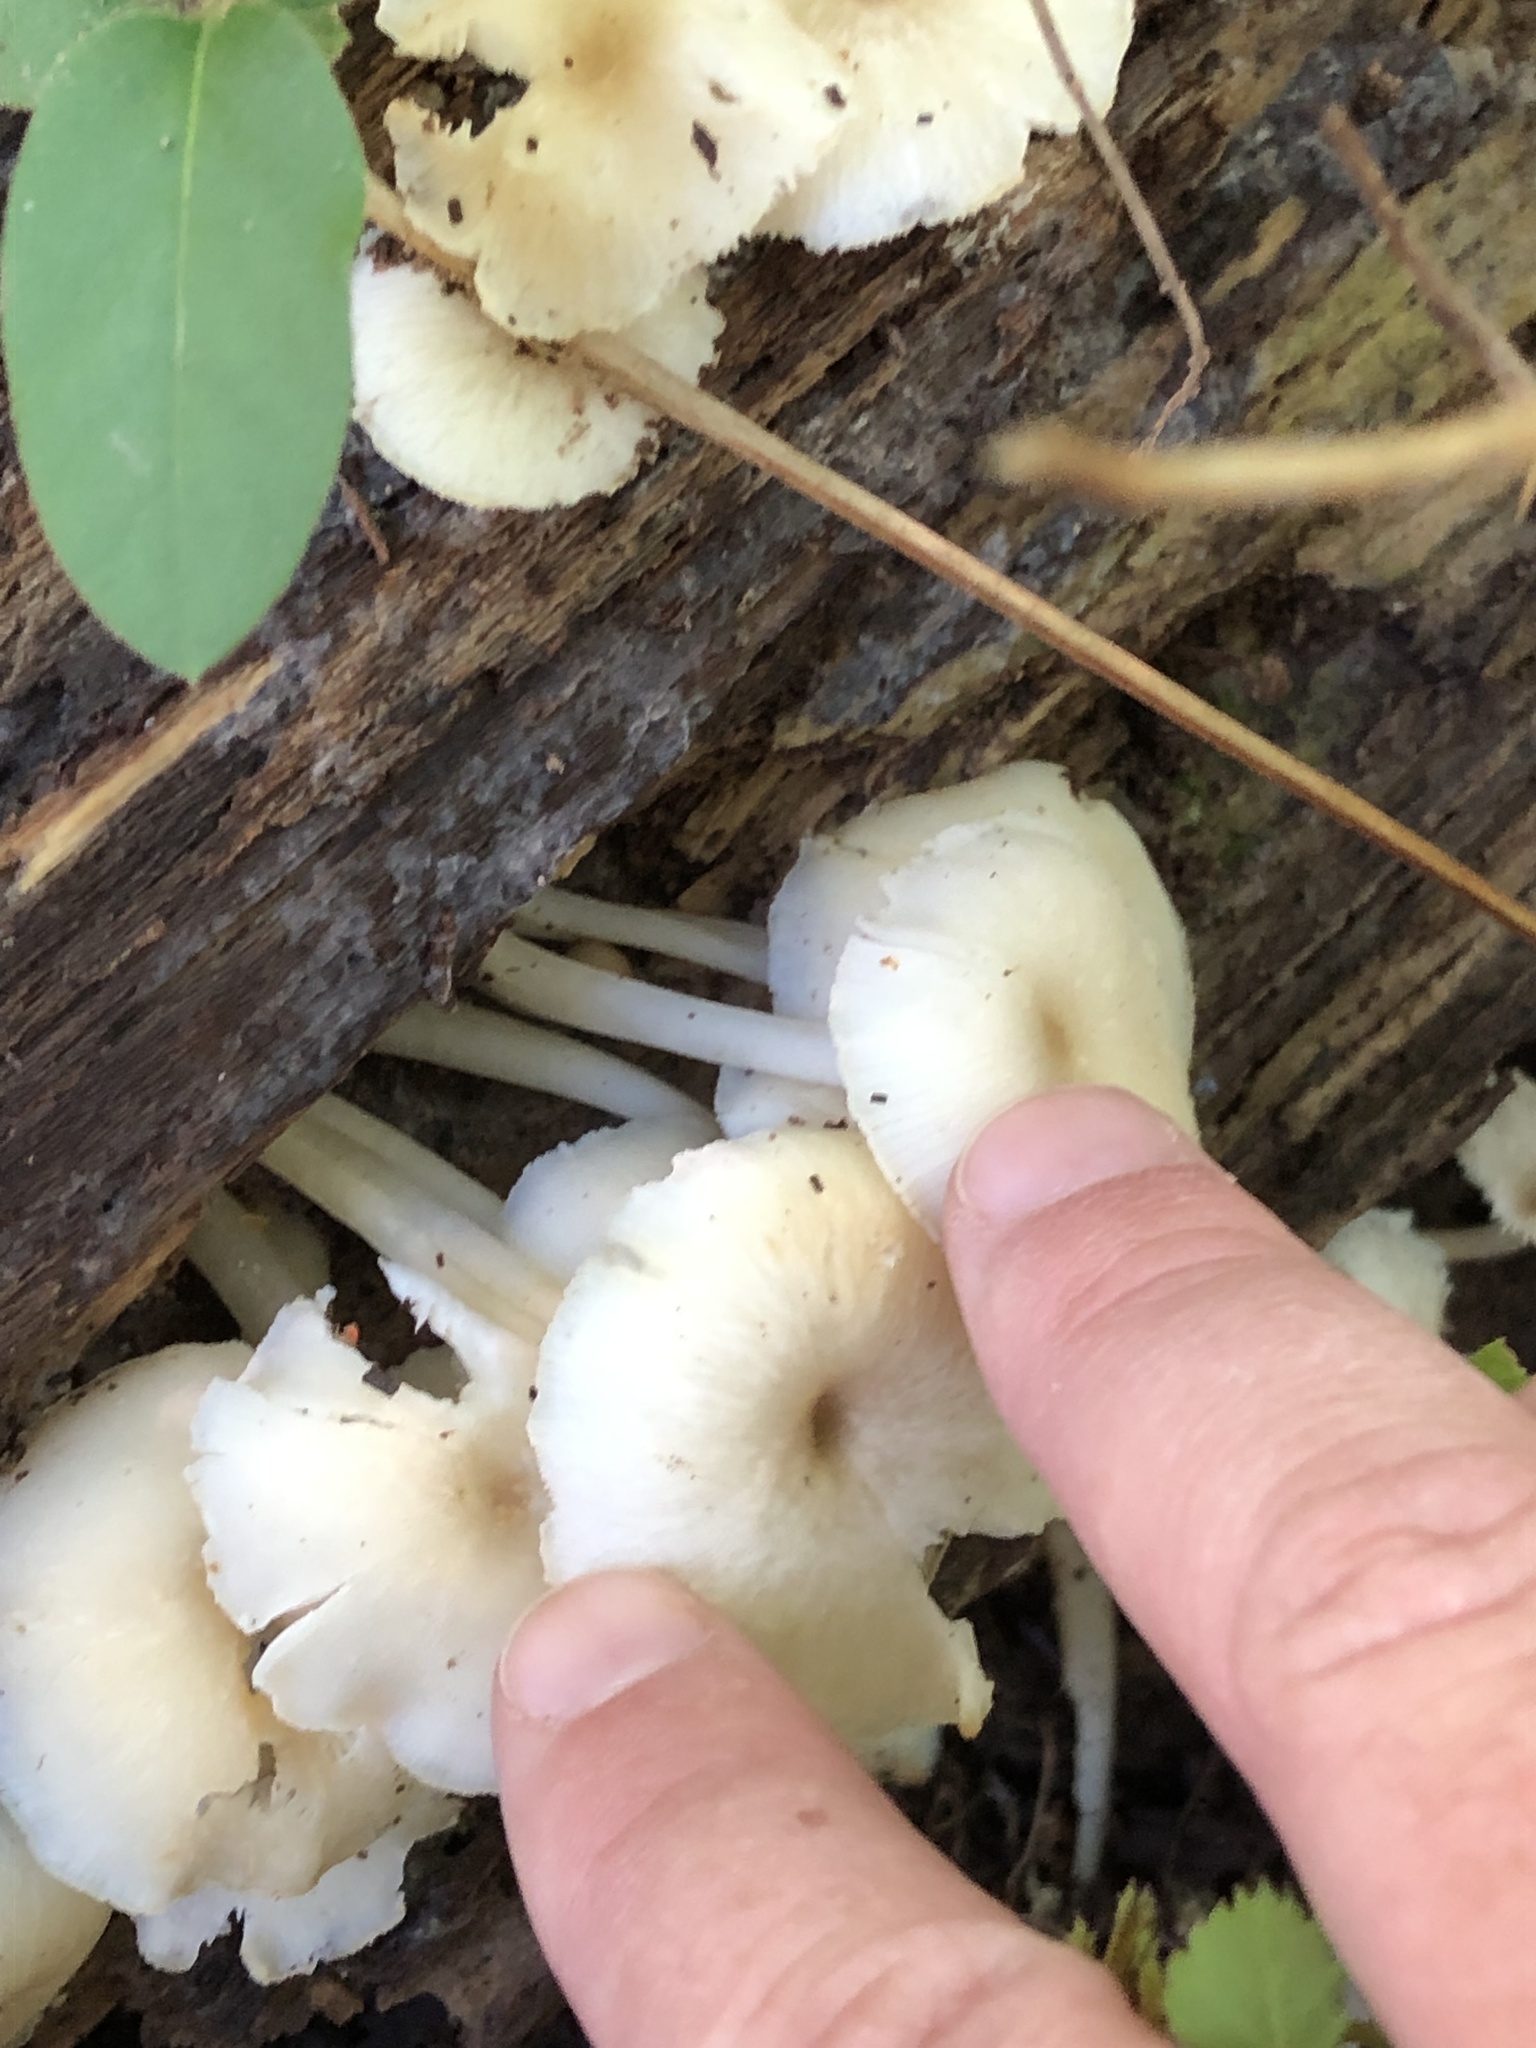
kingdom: Fungi
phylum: Basidiomycota
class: Agaricomycetes
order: Agaricales
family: Marasmiaceae
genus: Clitocybula
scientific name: Clitocybula oculus
